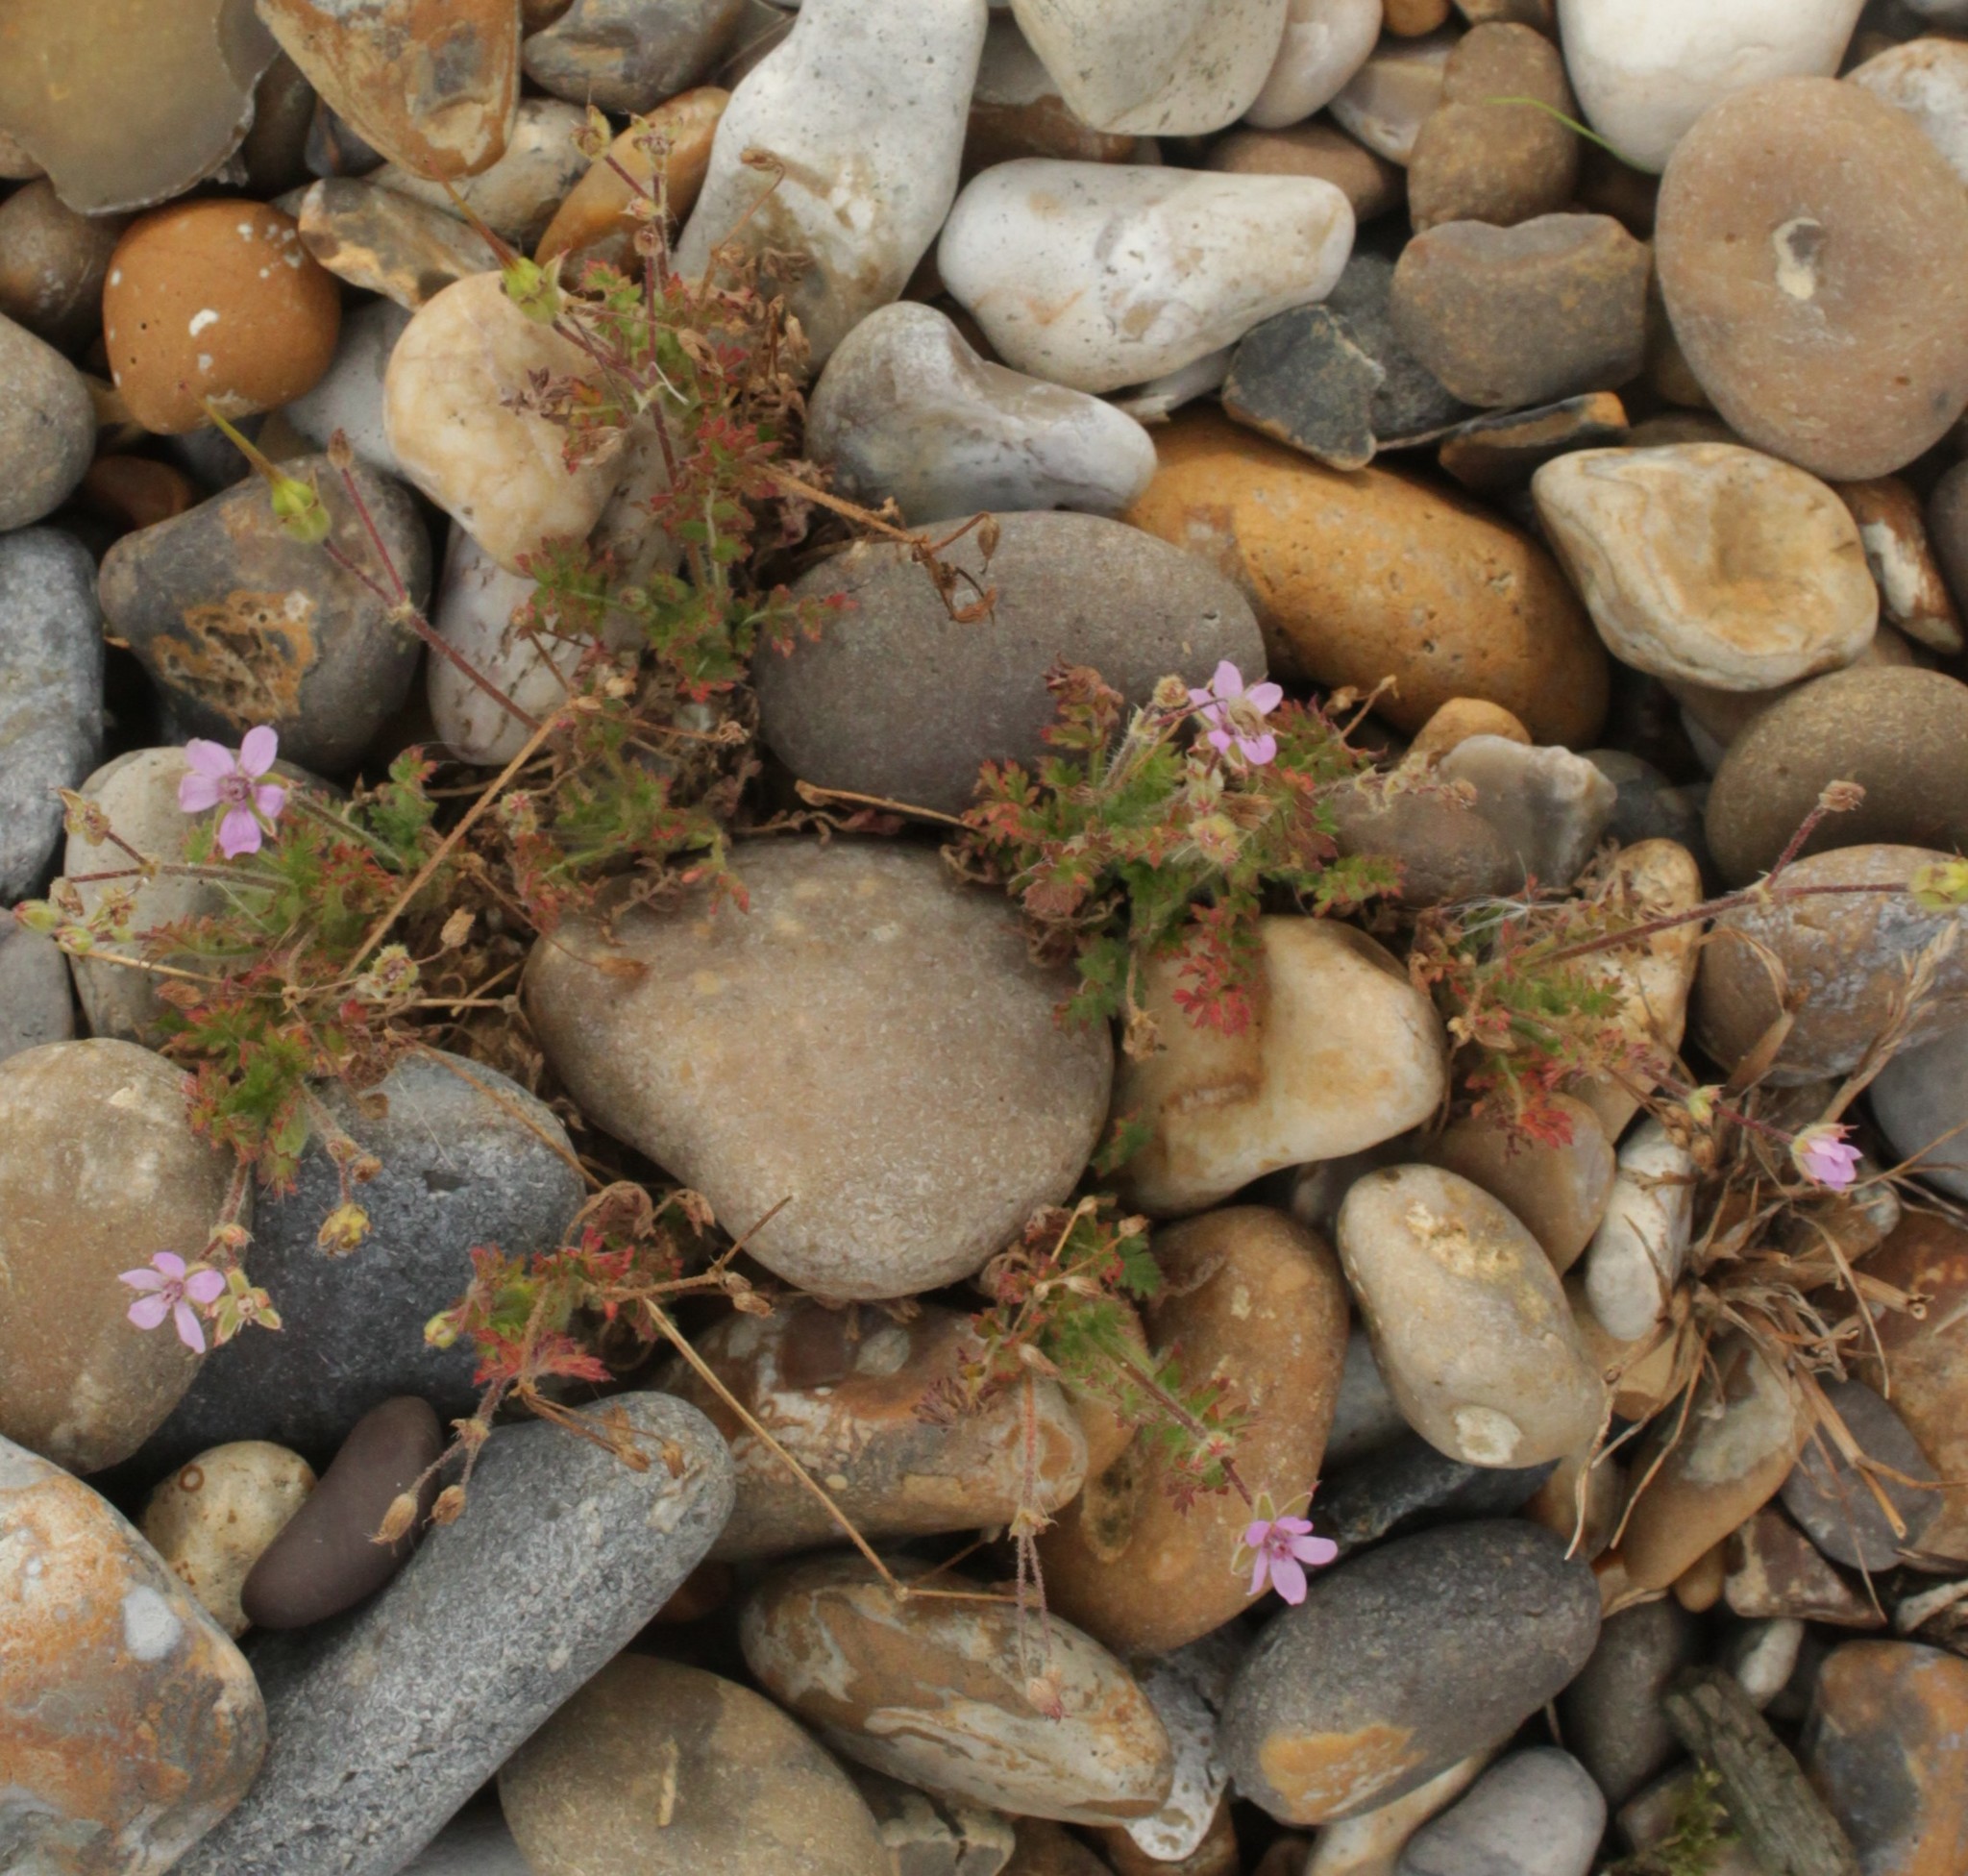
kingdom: Plantae
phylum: Tracheophyta
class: Magnoliopsida
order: Geraniales
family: Geraniaceae
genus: Erodium
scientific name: Erodium cicutarium
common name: Common stork's-bill
